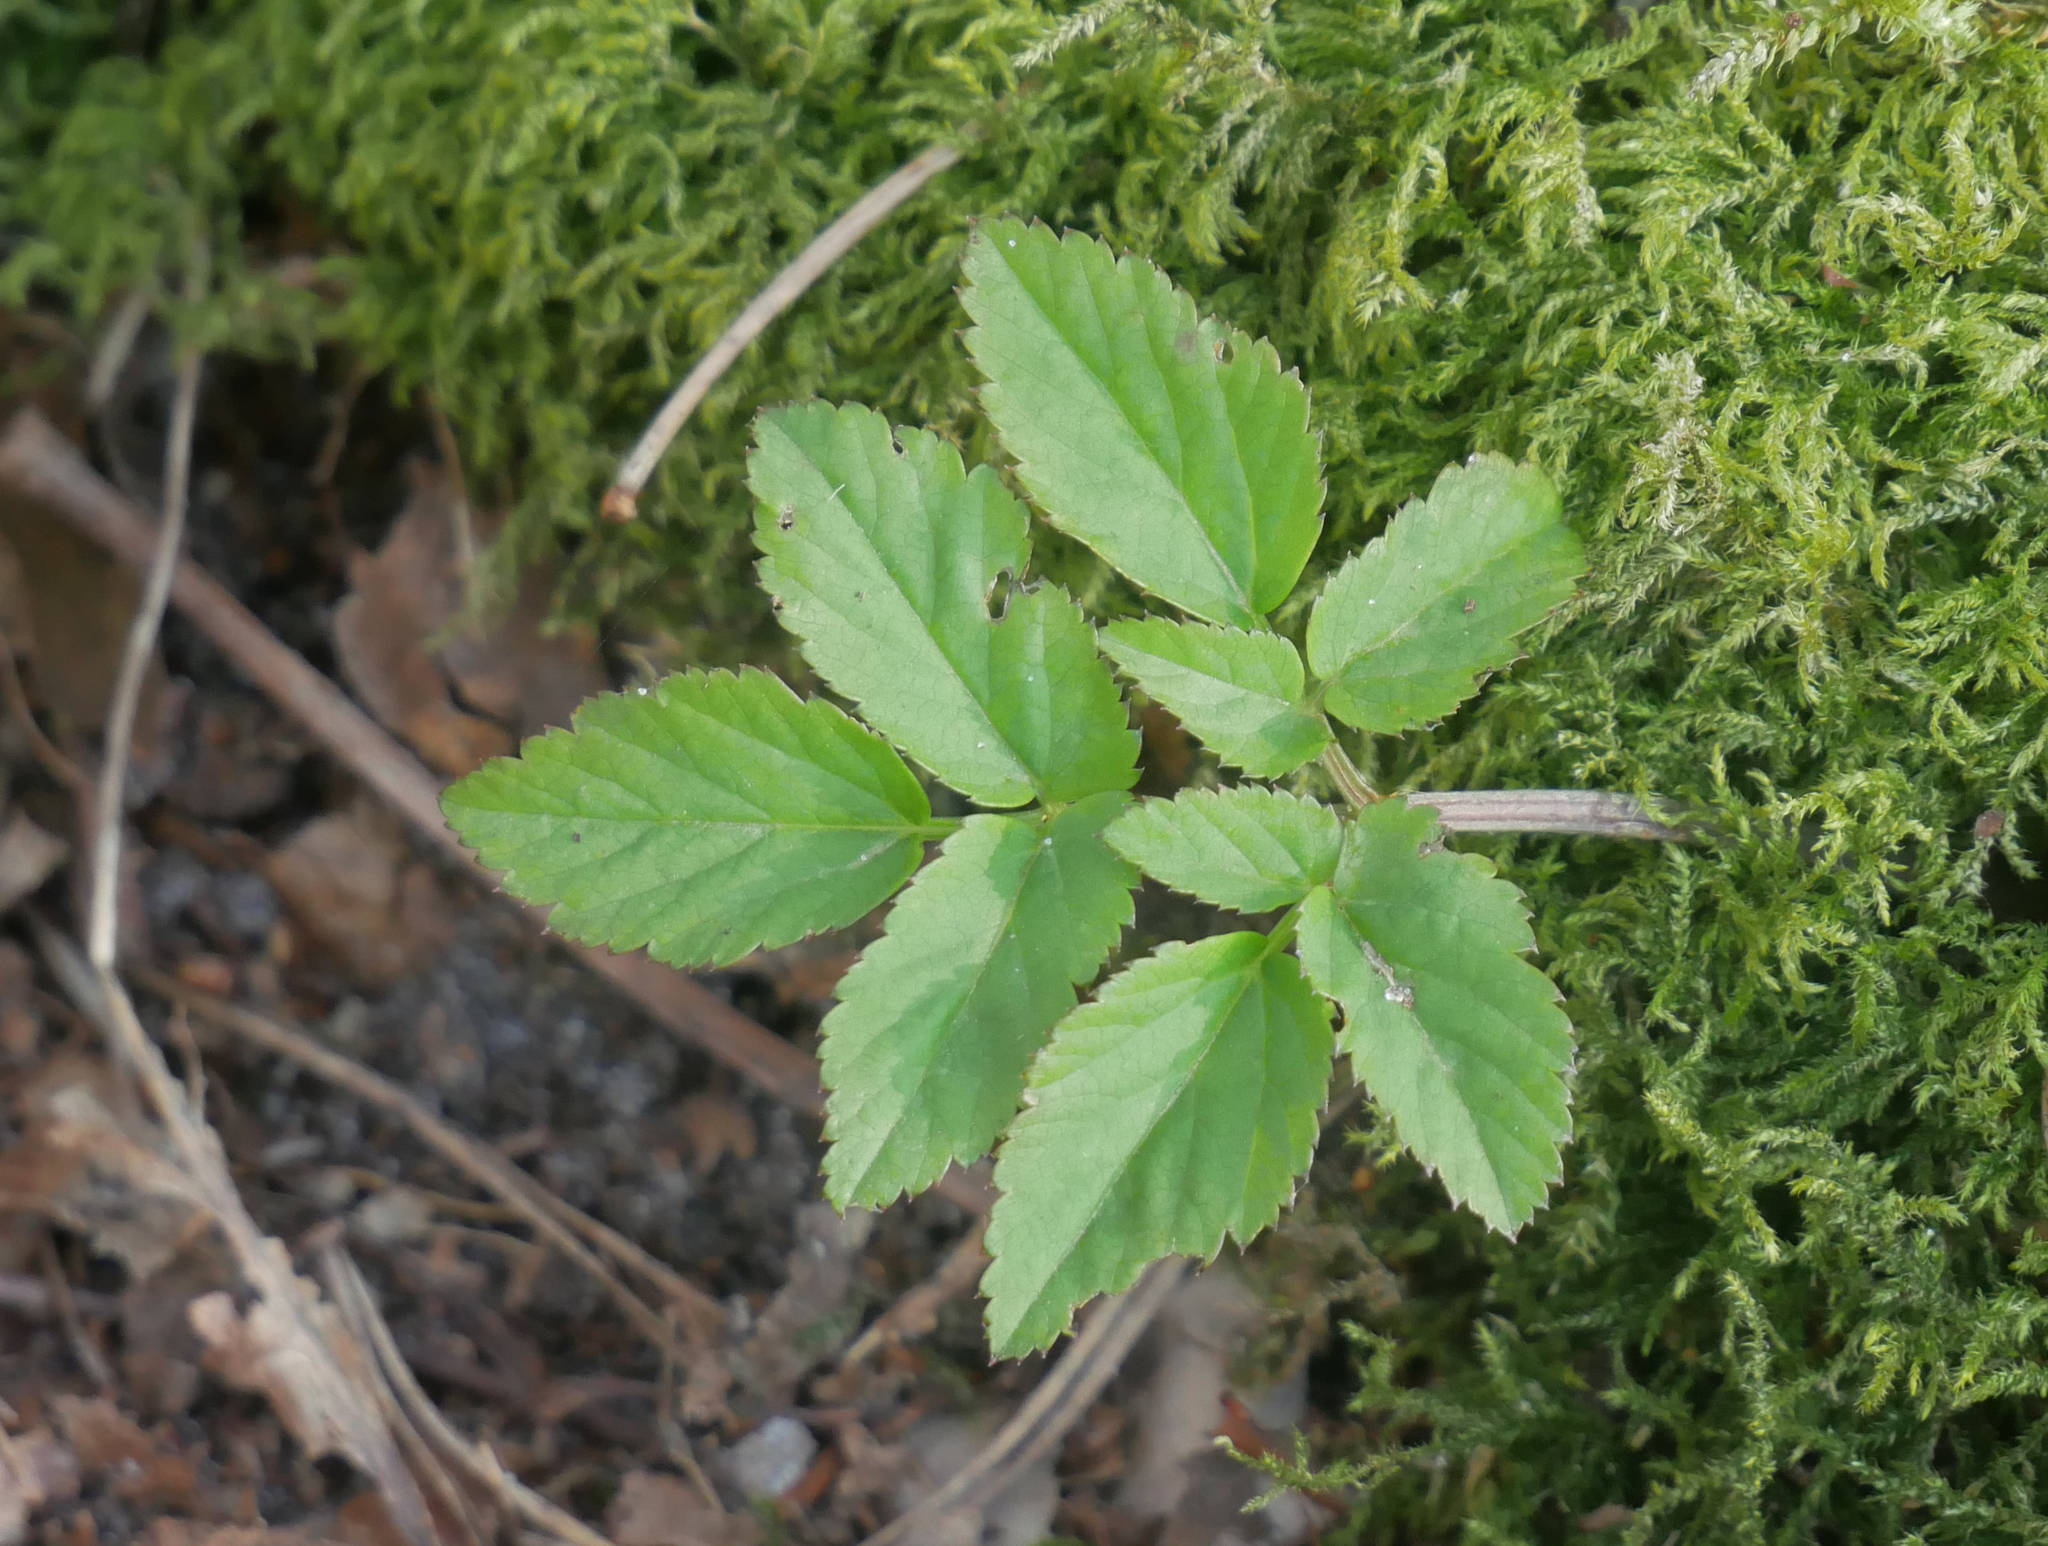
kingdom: Plantae
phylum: Tracheophyta
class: Magnoliopsida
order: Apiales
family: Apiaceae
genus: Aegopodium
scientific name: Aegopodium podagraria
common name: Ground-elder
